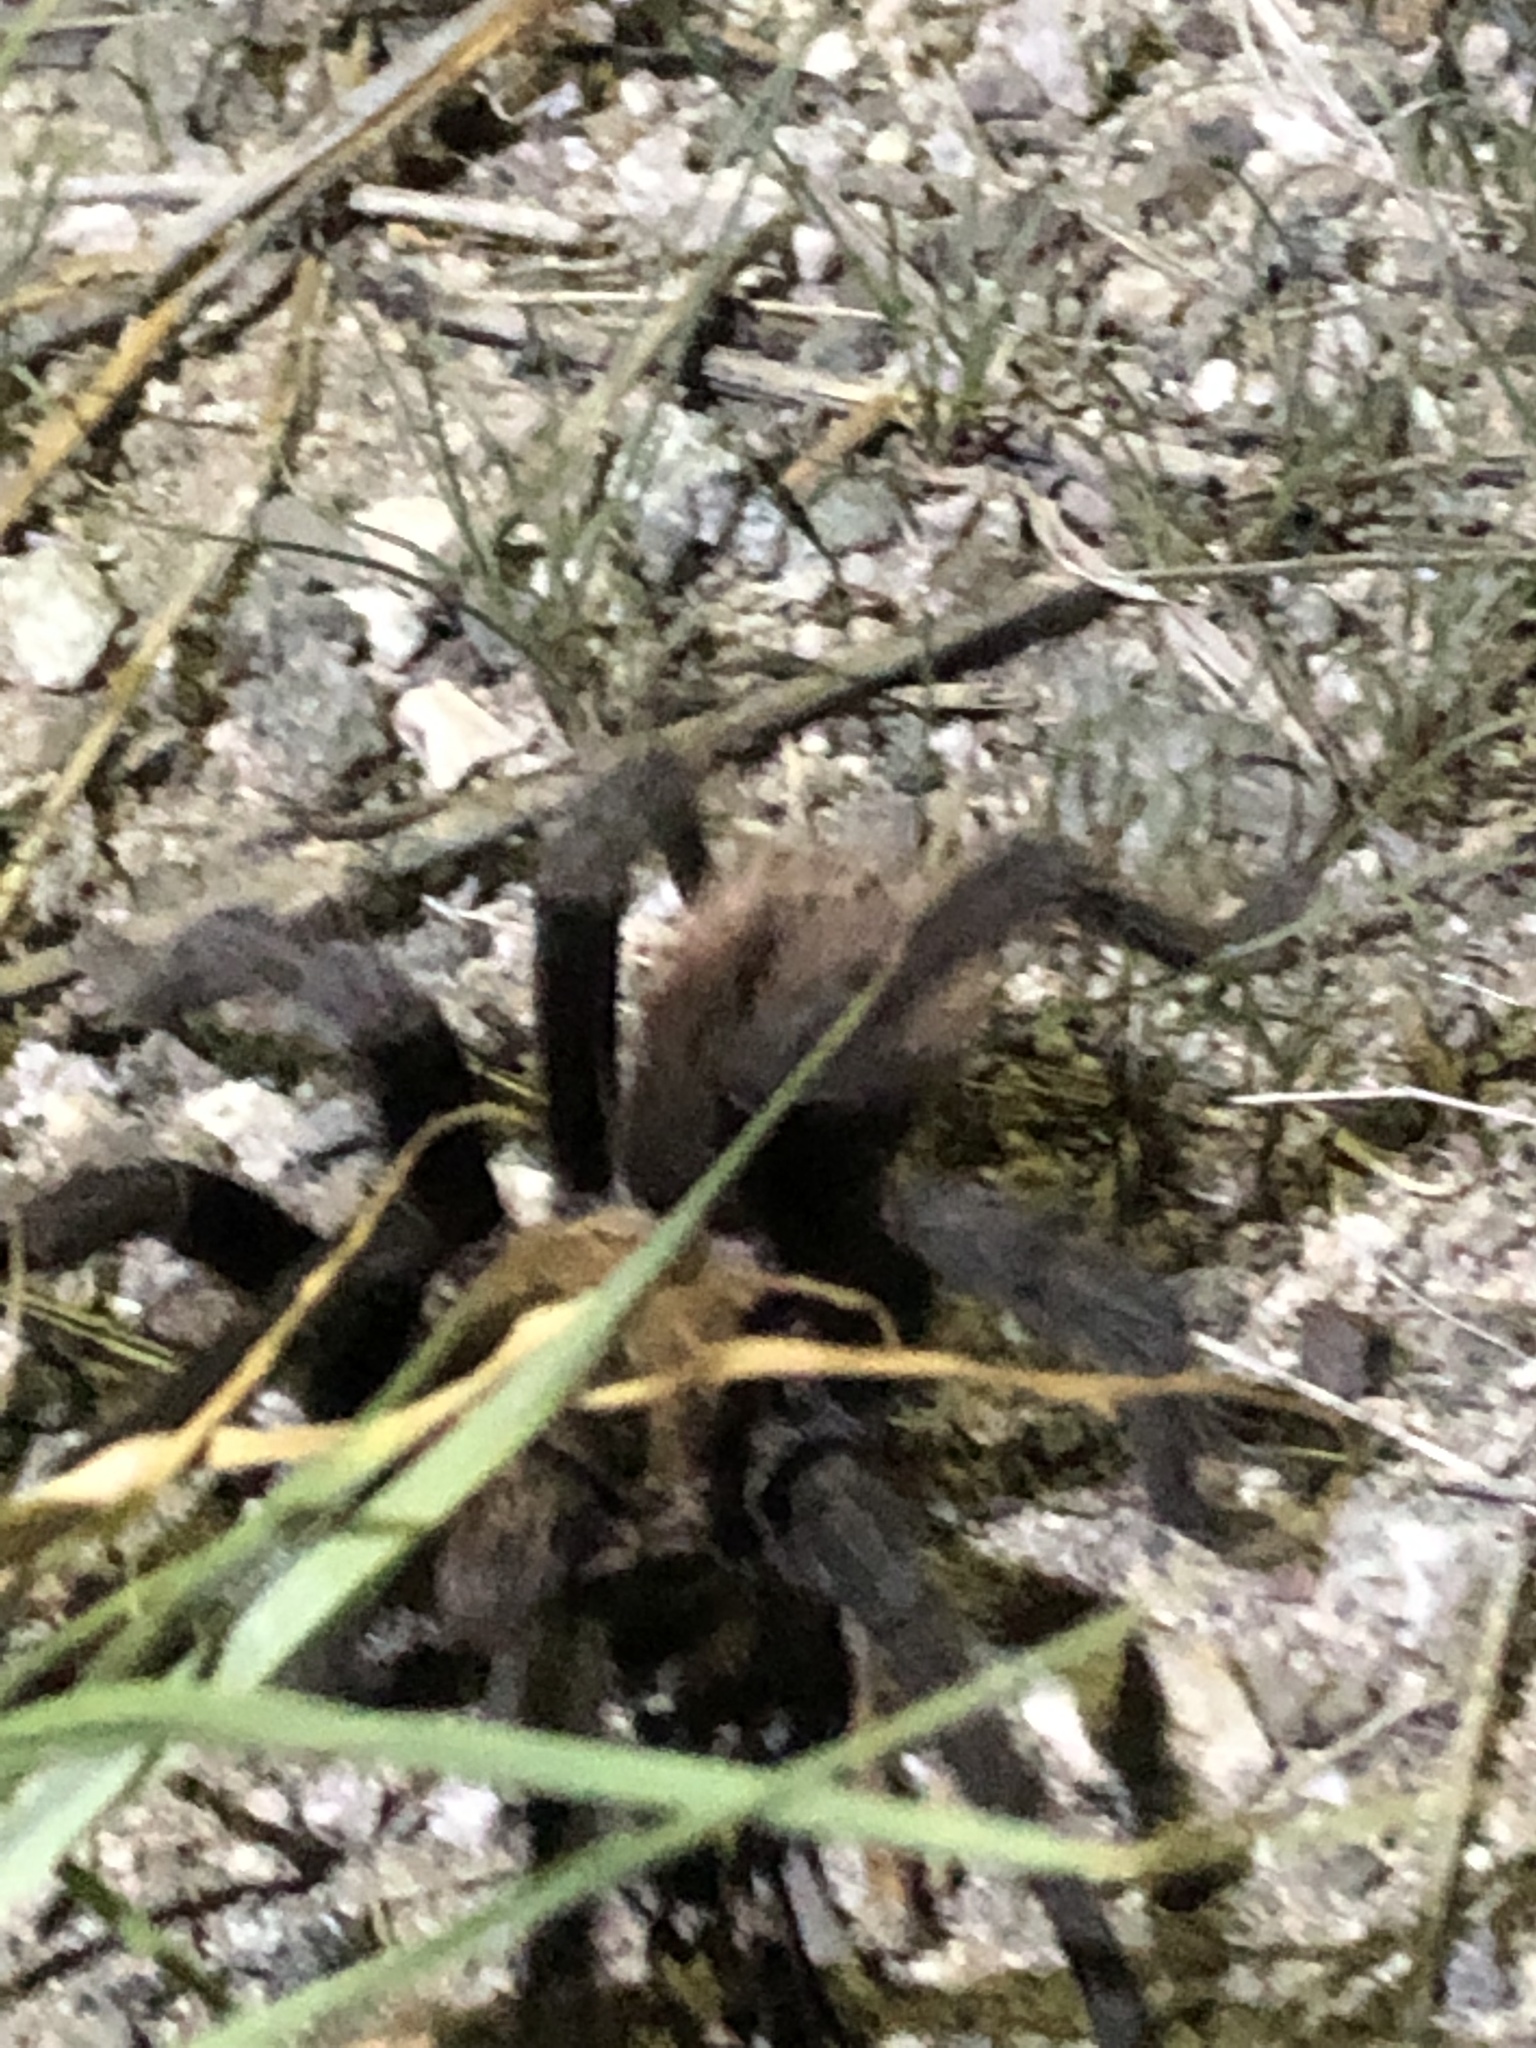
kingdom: Animalia
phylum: Arthropoda
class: Arachnida
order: Araneae
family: Theraphosidae
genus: Aphonopelma
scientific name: Aphonopelma chalcodes
